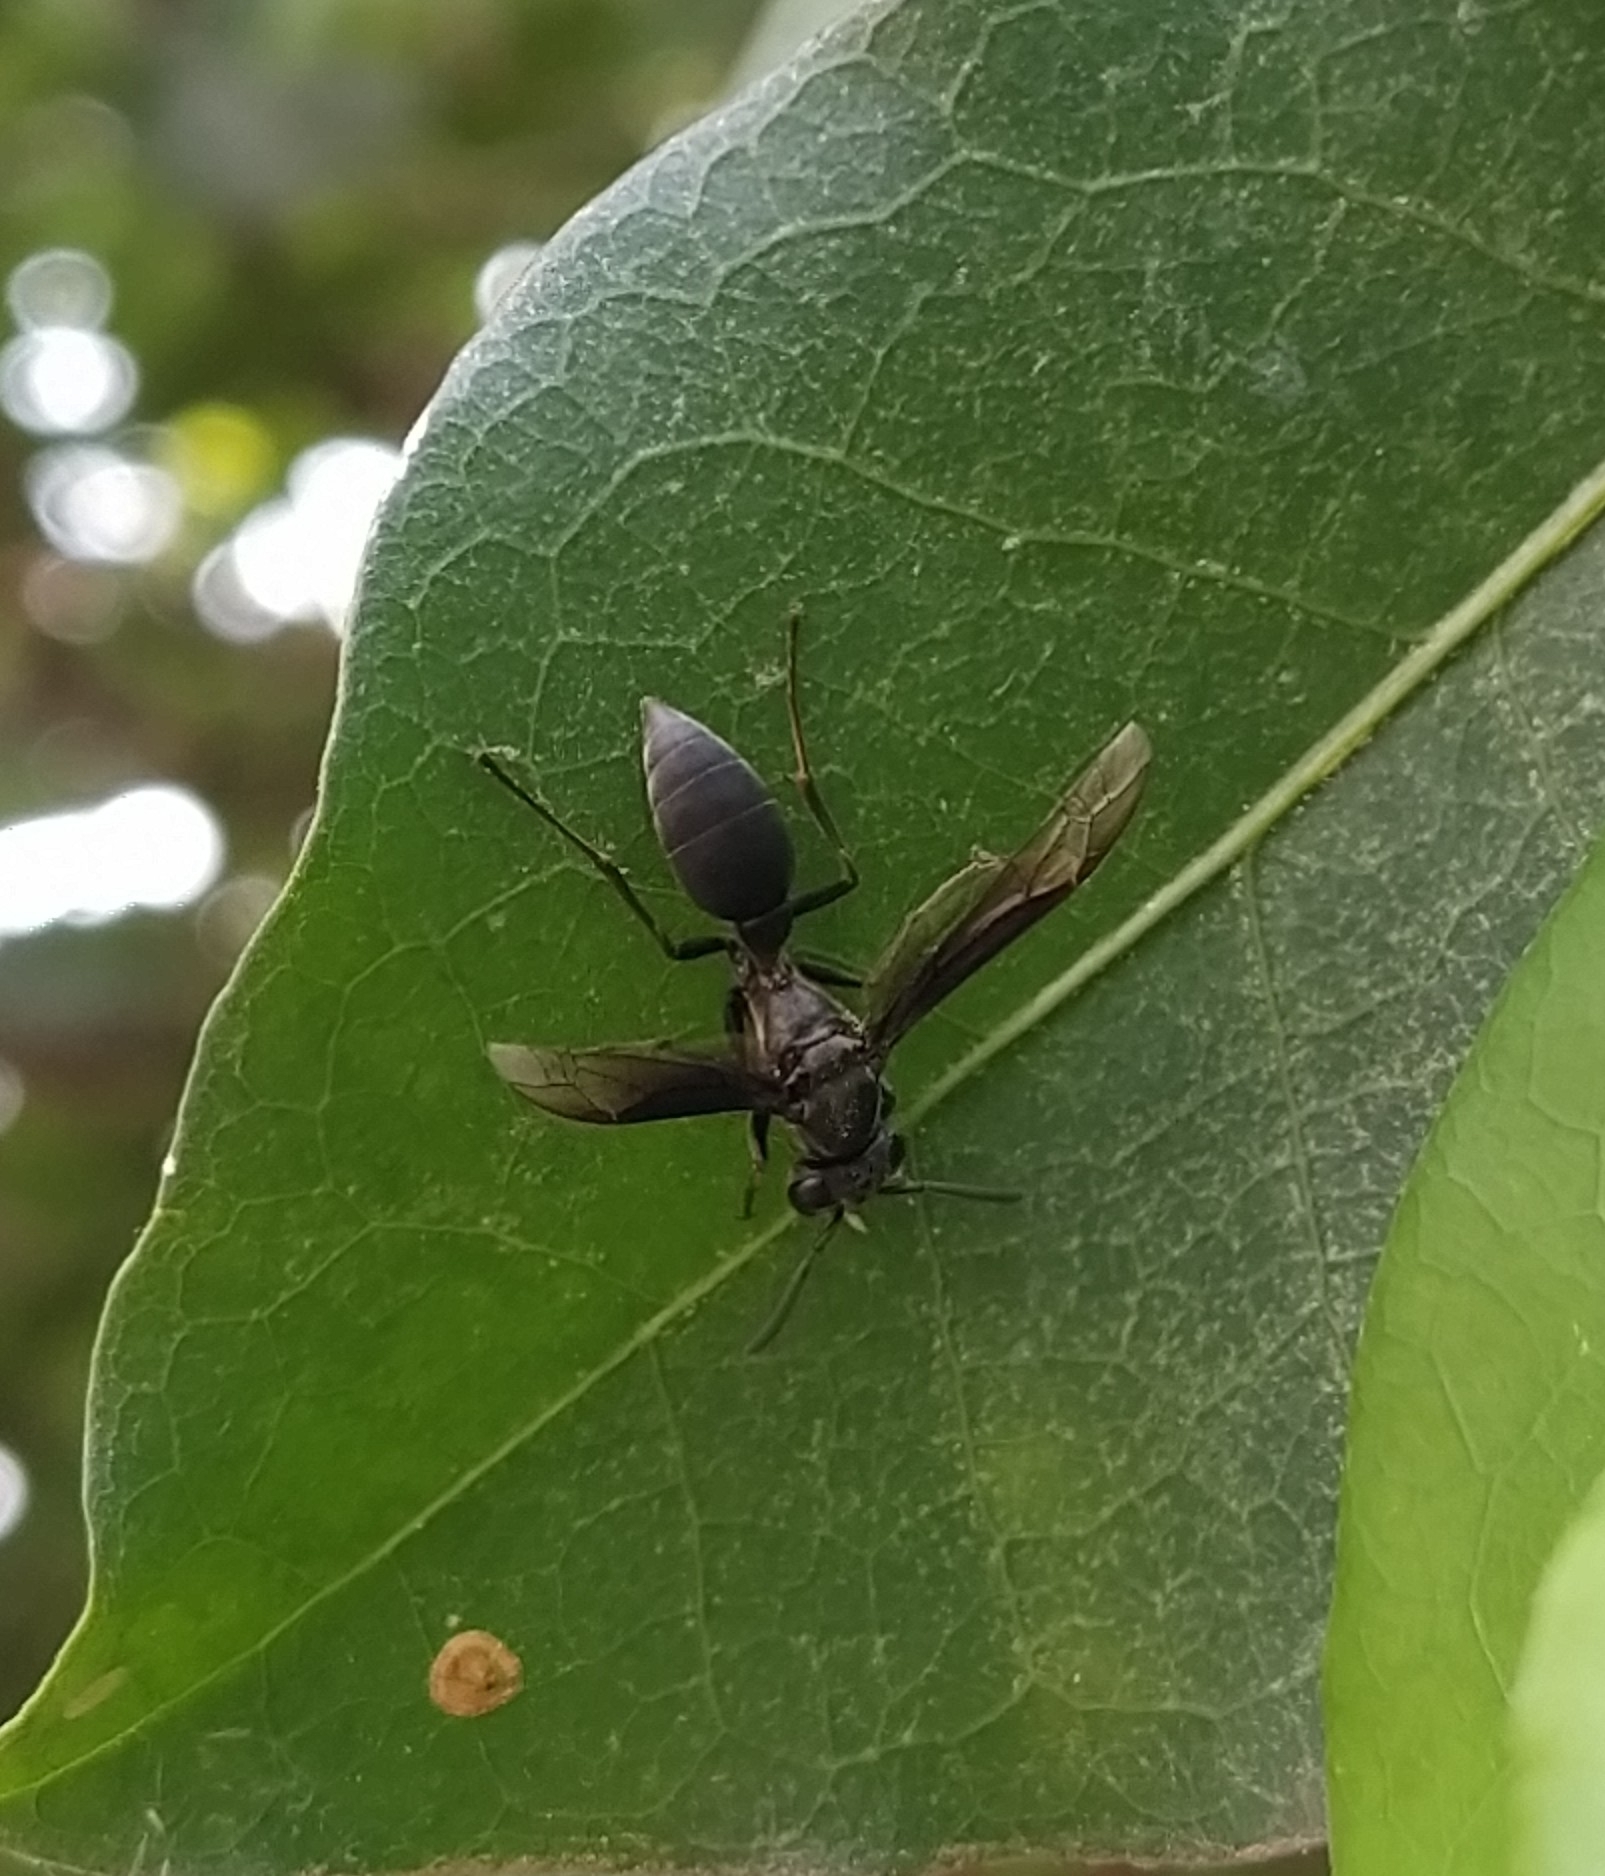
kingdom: Animalia
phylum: Arthropoda
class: Insecta
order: Hymenoptera
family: Eumenidae
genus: Polybia
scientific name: Polybia ignobilis
